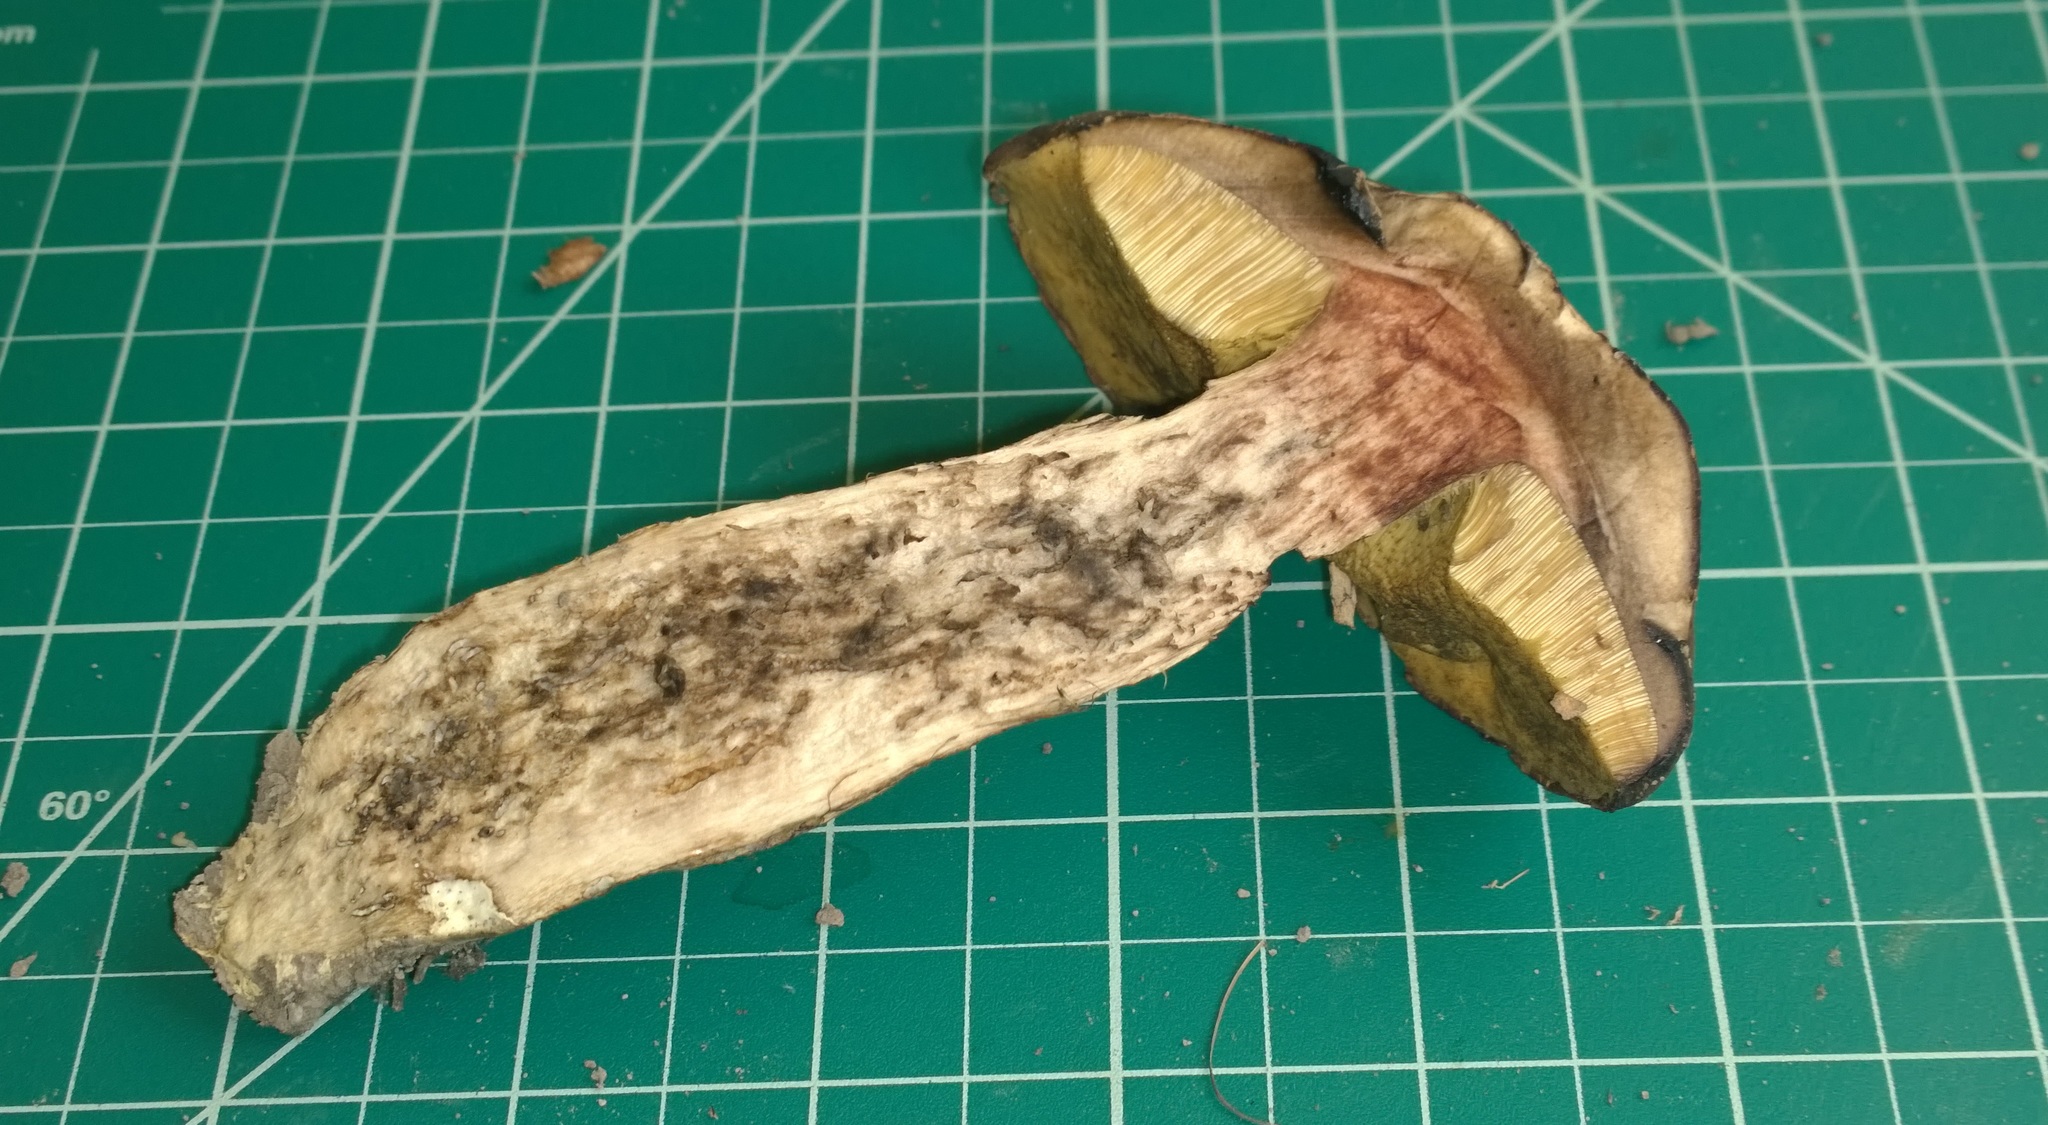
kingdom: Fungi
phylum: Basidiomycota
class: Agaricomycetes
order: Boletales
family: Boletaceae
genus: Leccinellum
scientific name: Leccinellum crocipodium
